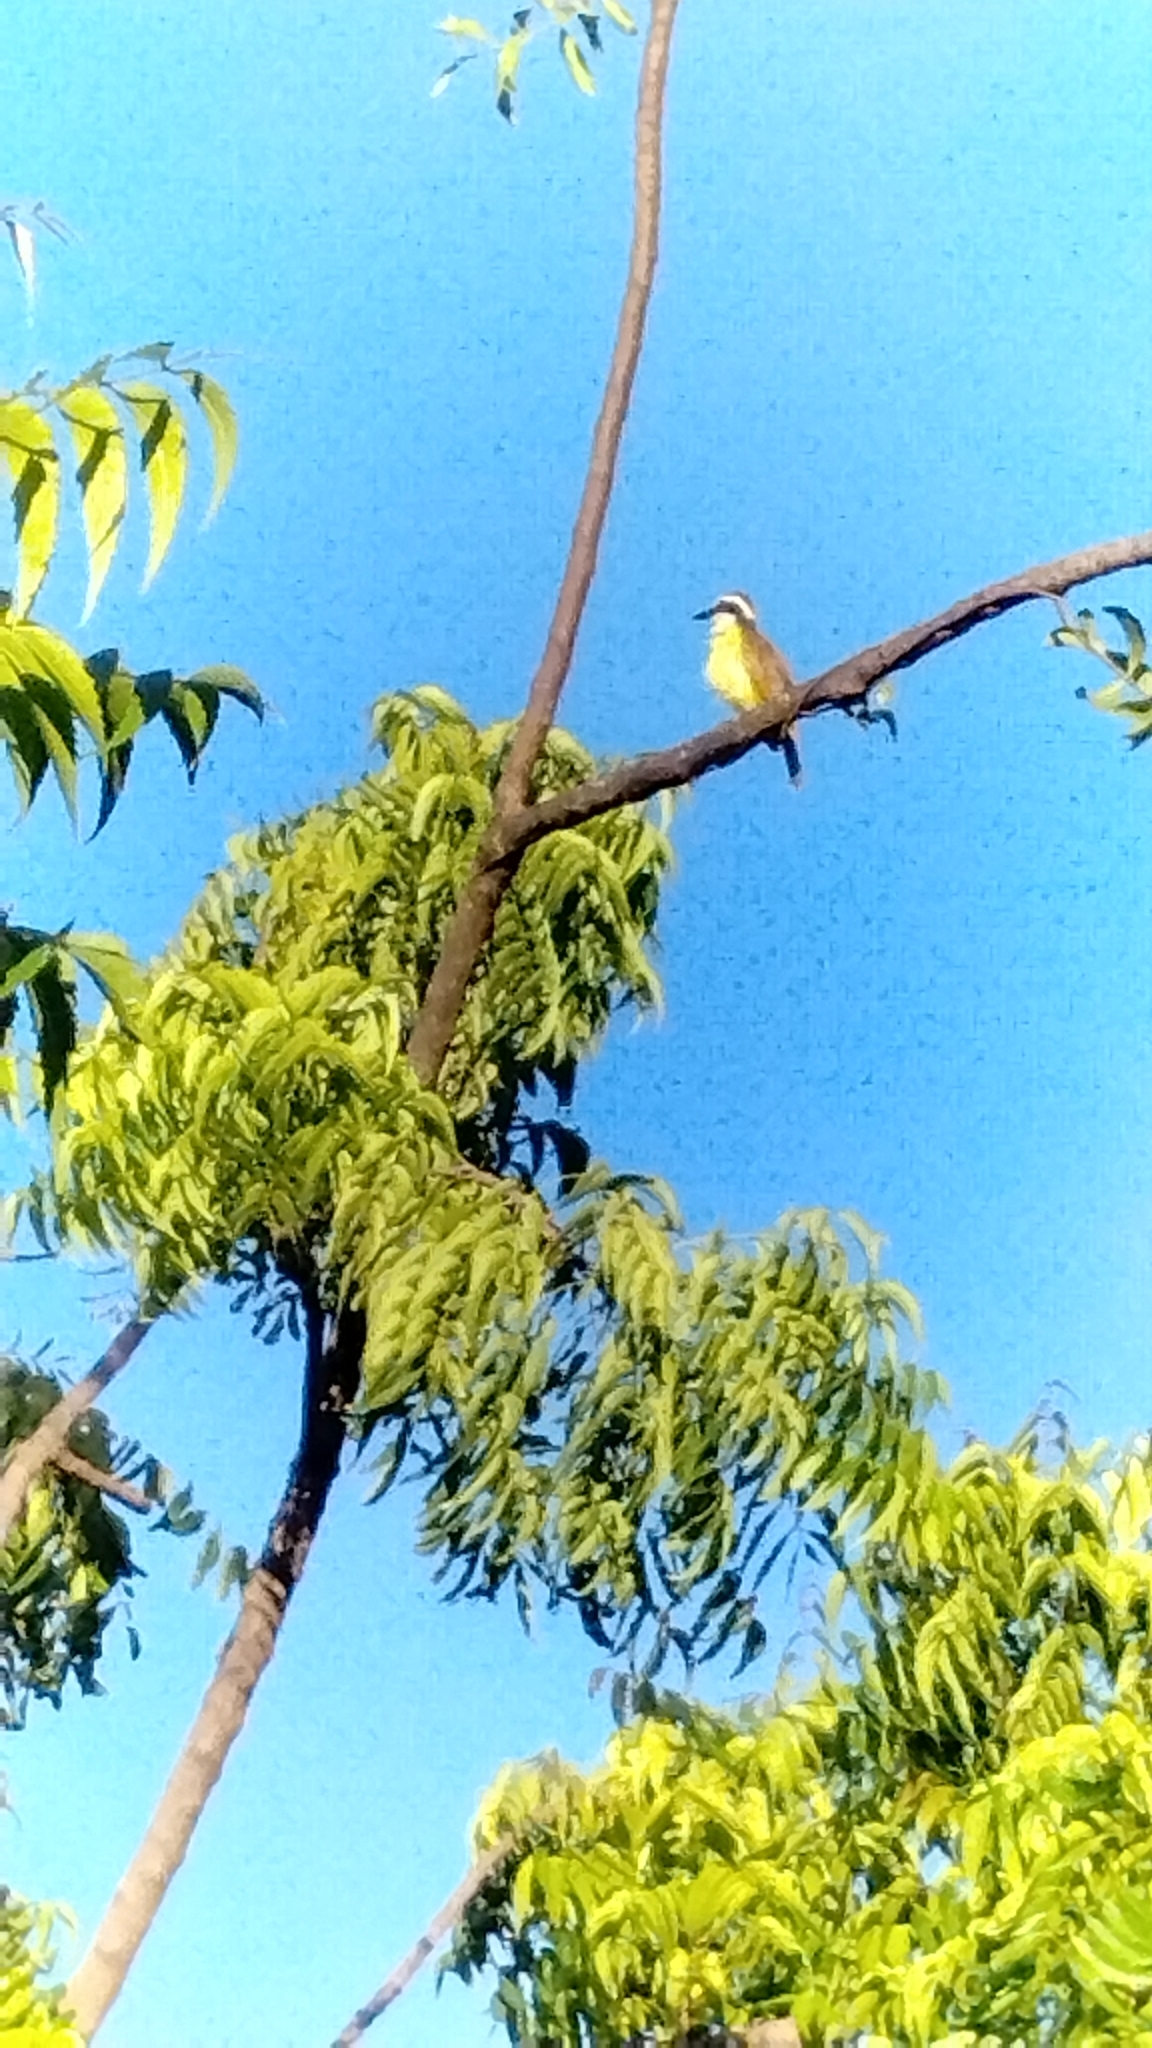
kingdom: Animalia
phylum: Chordata
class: Aves
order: Passeriformes
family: Tyrannidae
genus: Pitangus
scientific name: Pitangus sulphuratus
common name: Great kiskadee
